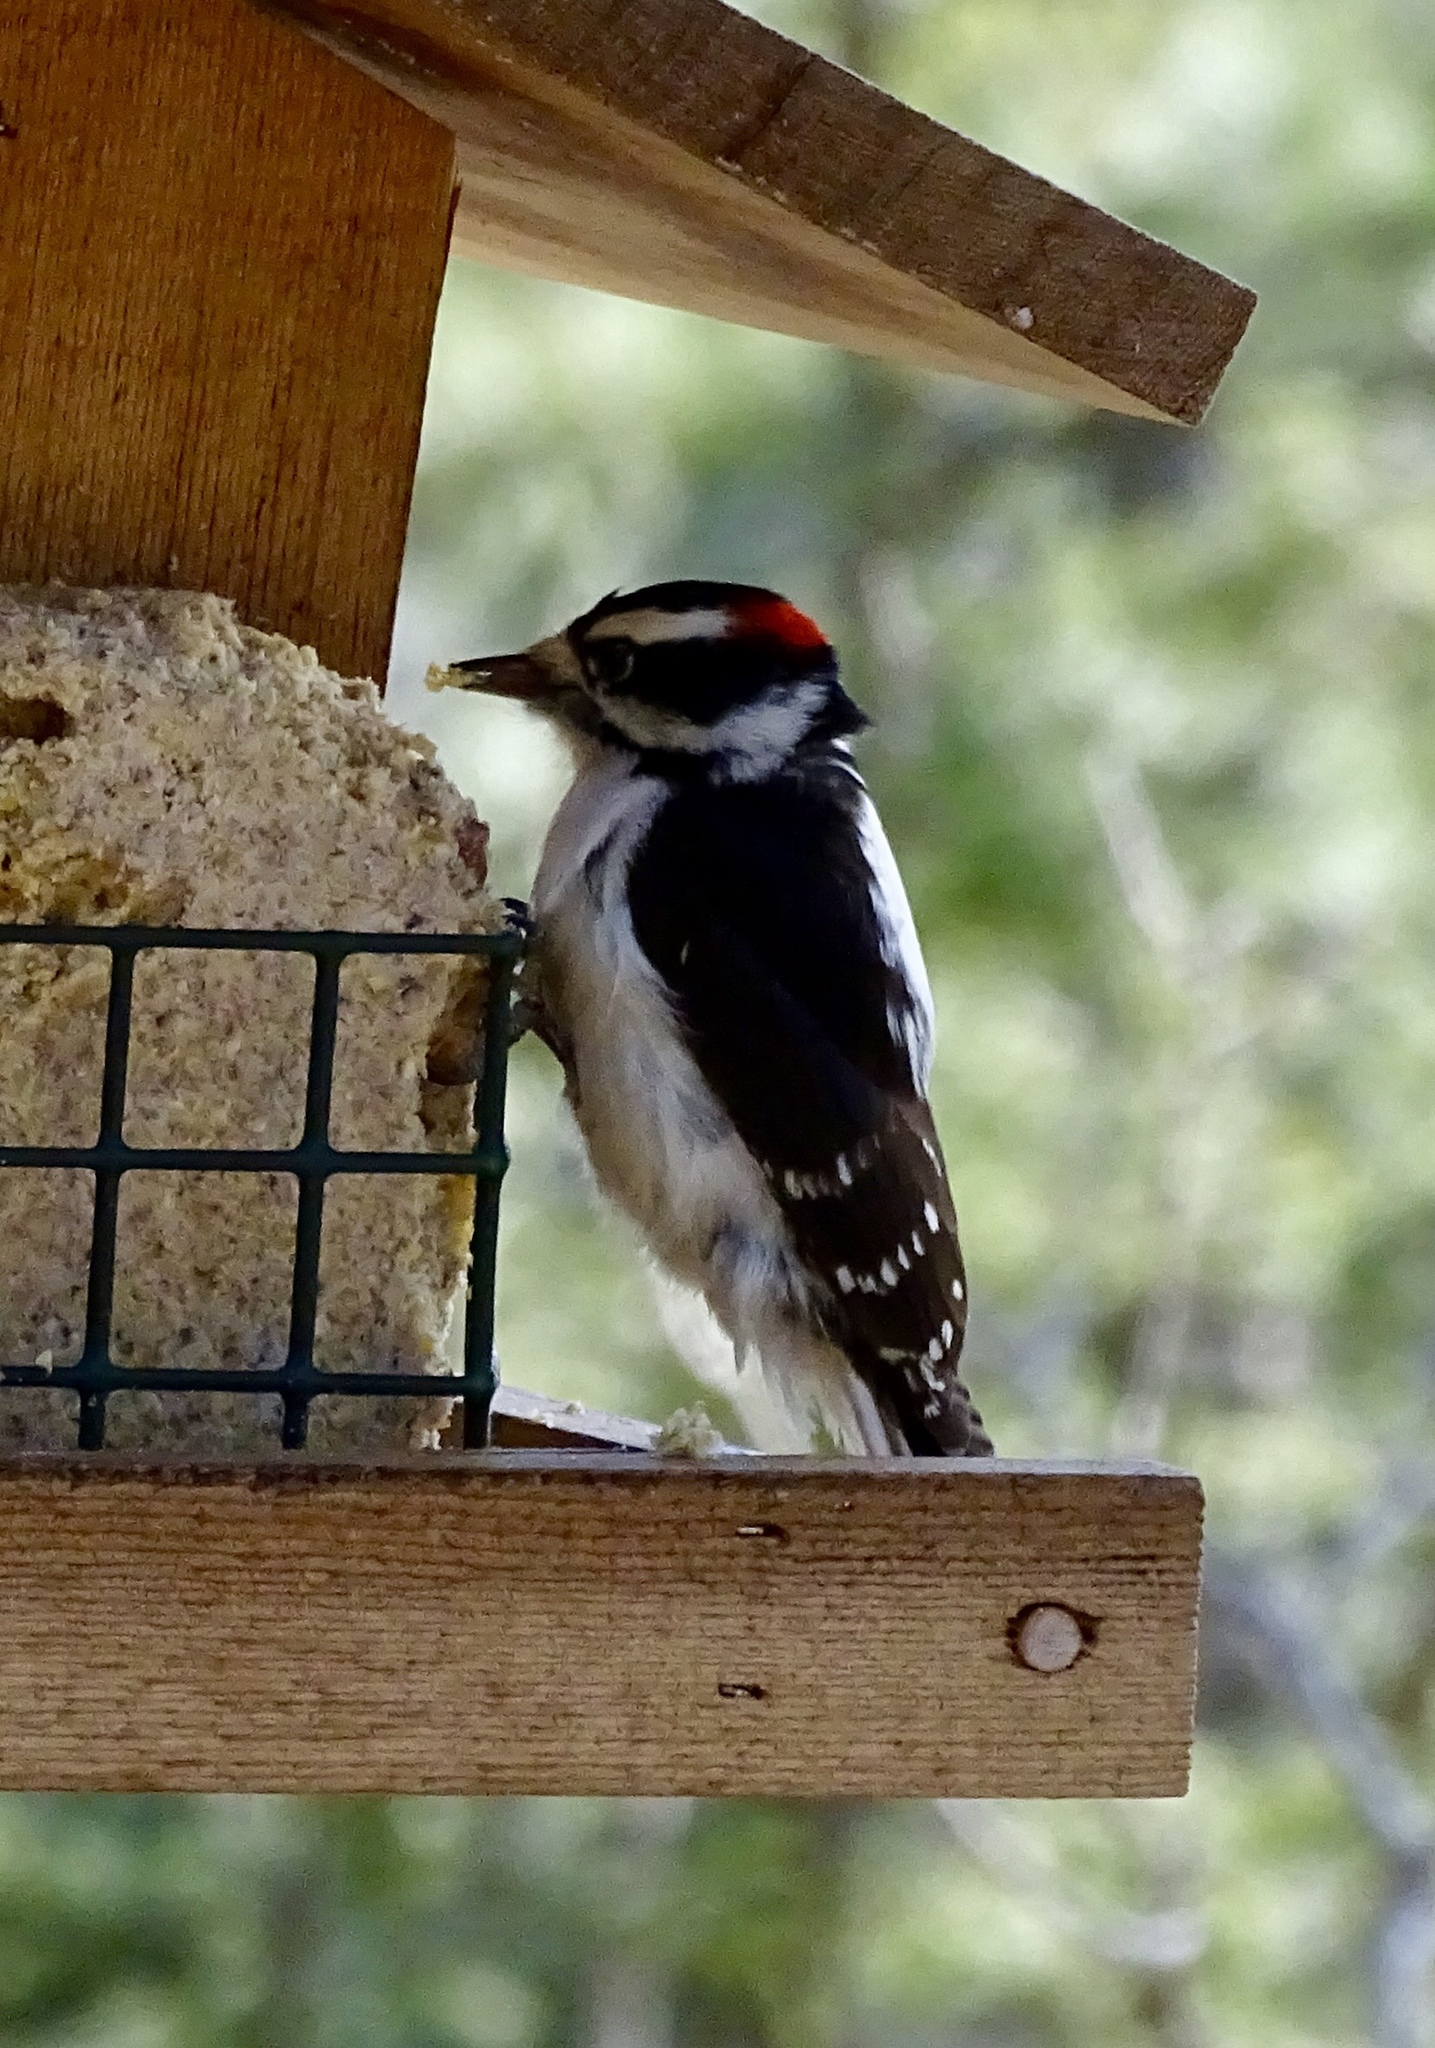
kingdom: Animalia
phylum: Chordata
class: Aves
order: Piciformes
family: Picidae
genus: Dryobates
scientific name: Dryobates pubescens
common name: Downy woodpecker
